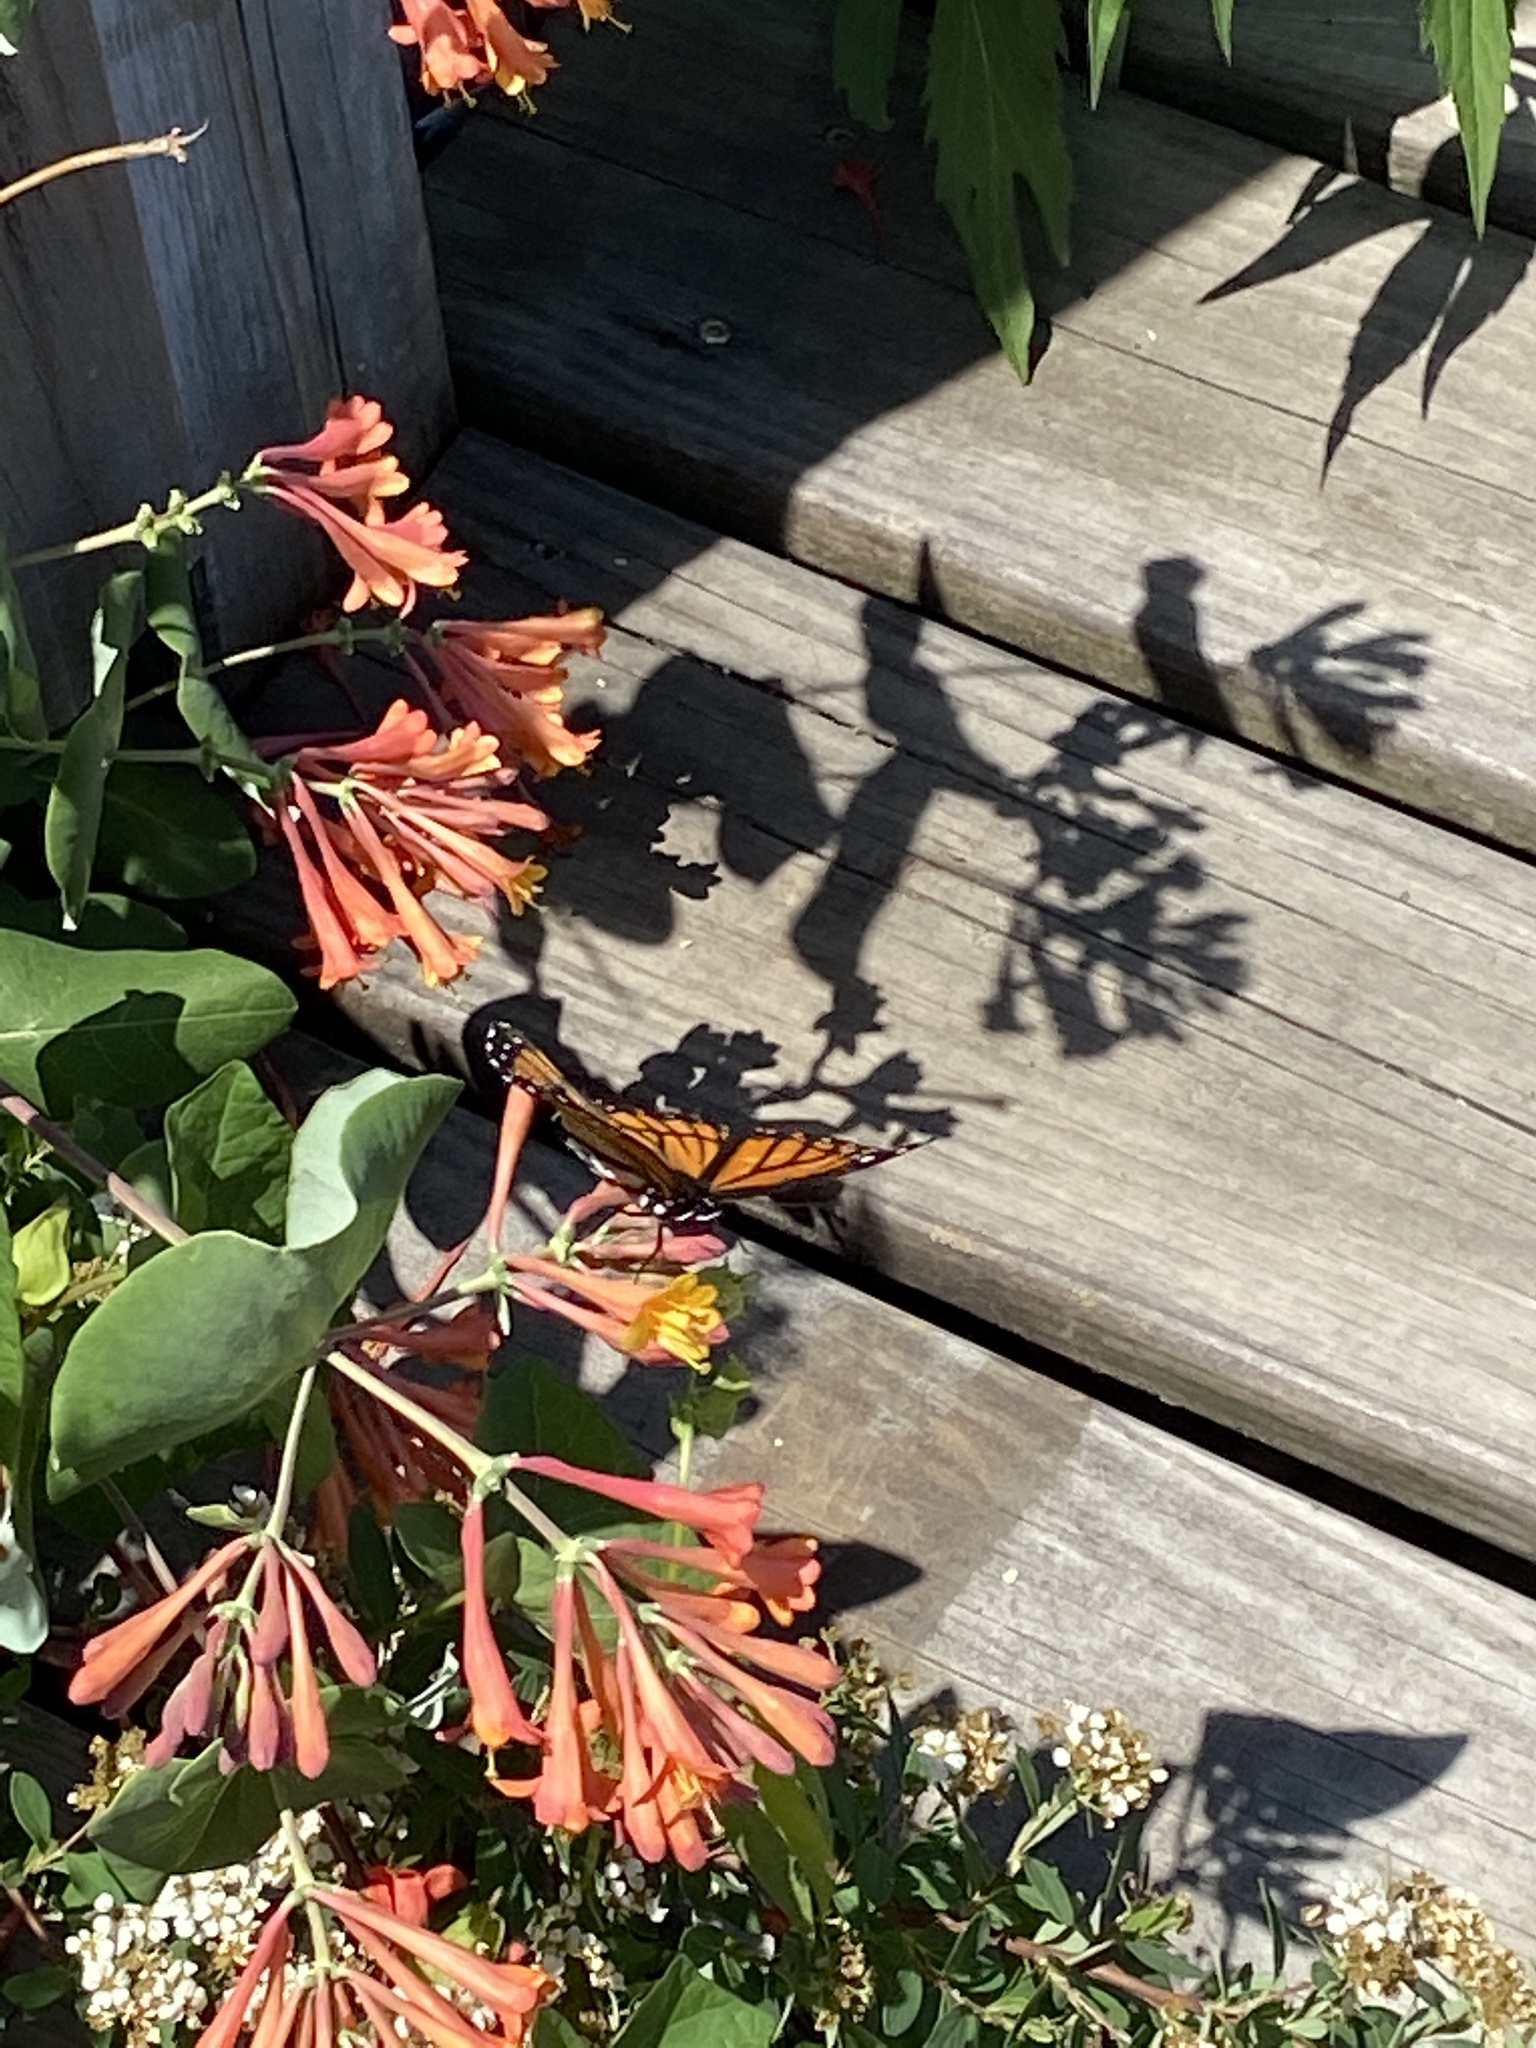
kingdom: Animalia
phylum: Arthropoda
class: Insecta
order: Lepidoptera
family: Nymphalidae
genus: Limenitis
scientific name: Limenitis archippus
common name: Viceroy
